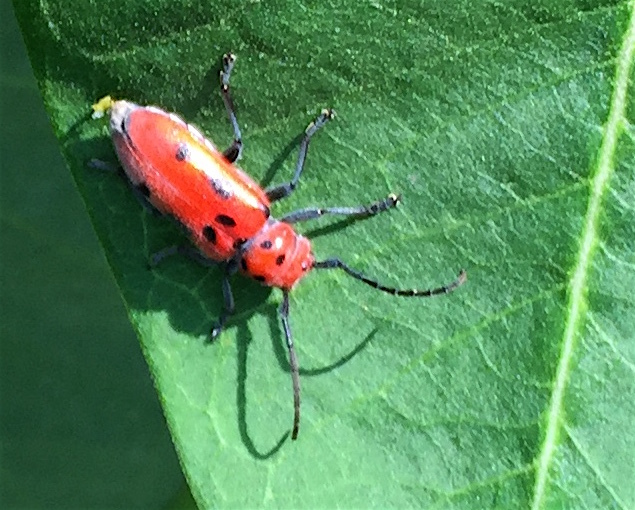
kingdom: Animalia
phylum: Arthropoda
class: Insecta
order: Coleoptera
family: Cerambycidae
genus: Tetraopes
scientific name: Tetraopes tetrophthalmus
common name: Red milkweed beetle
